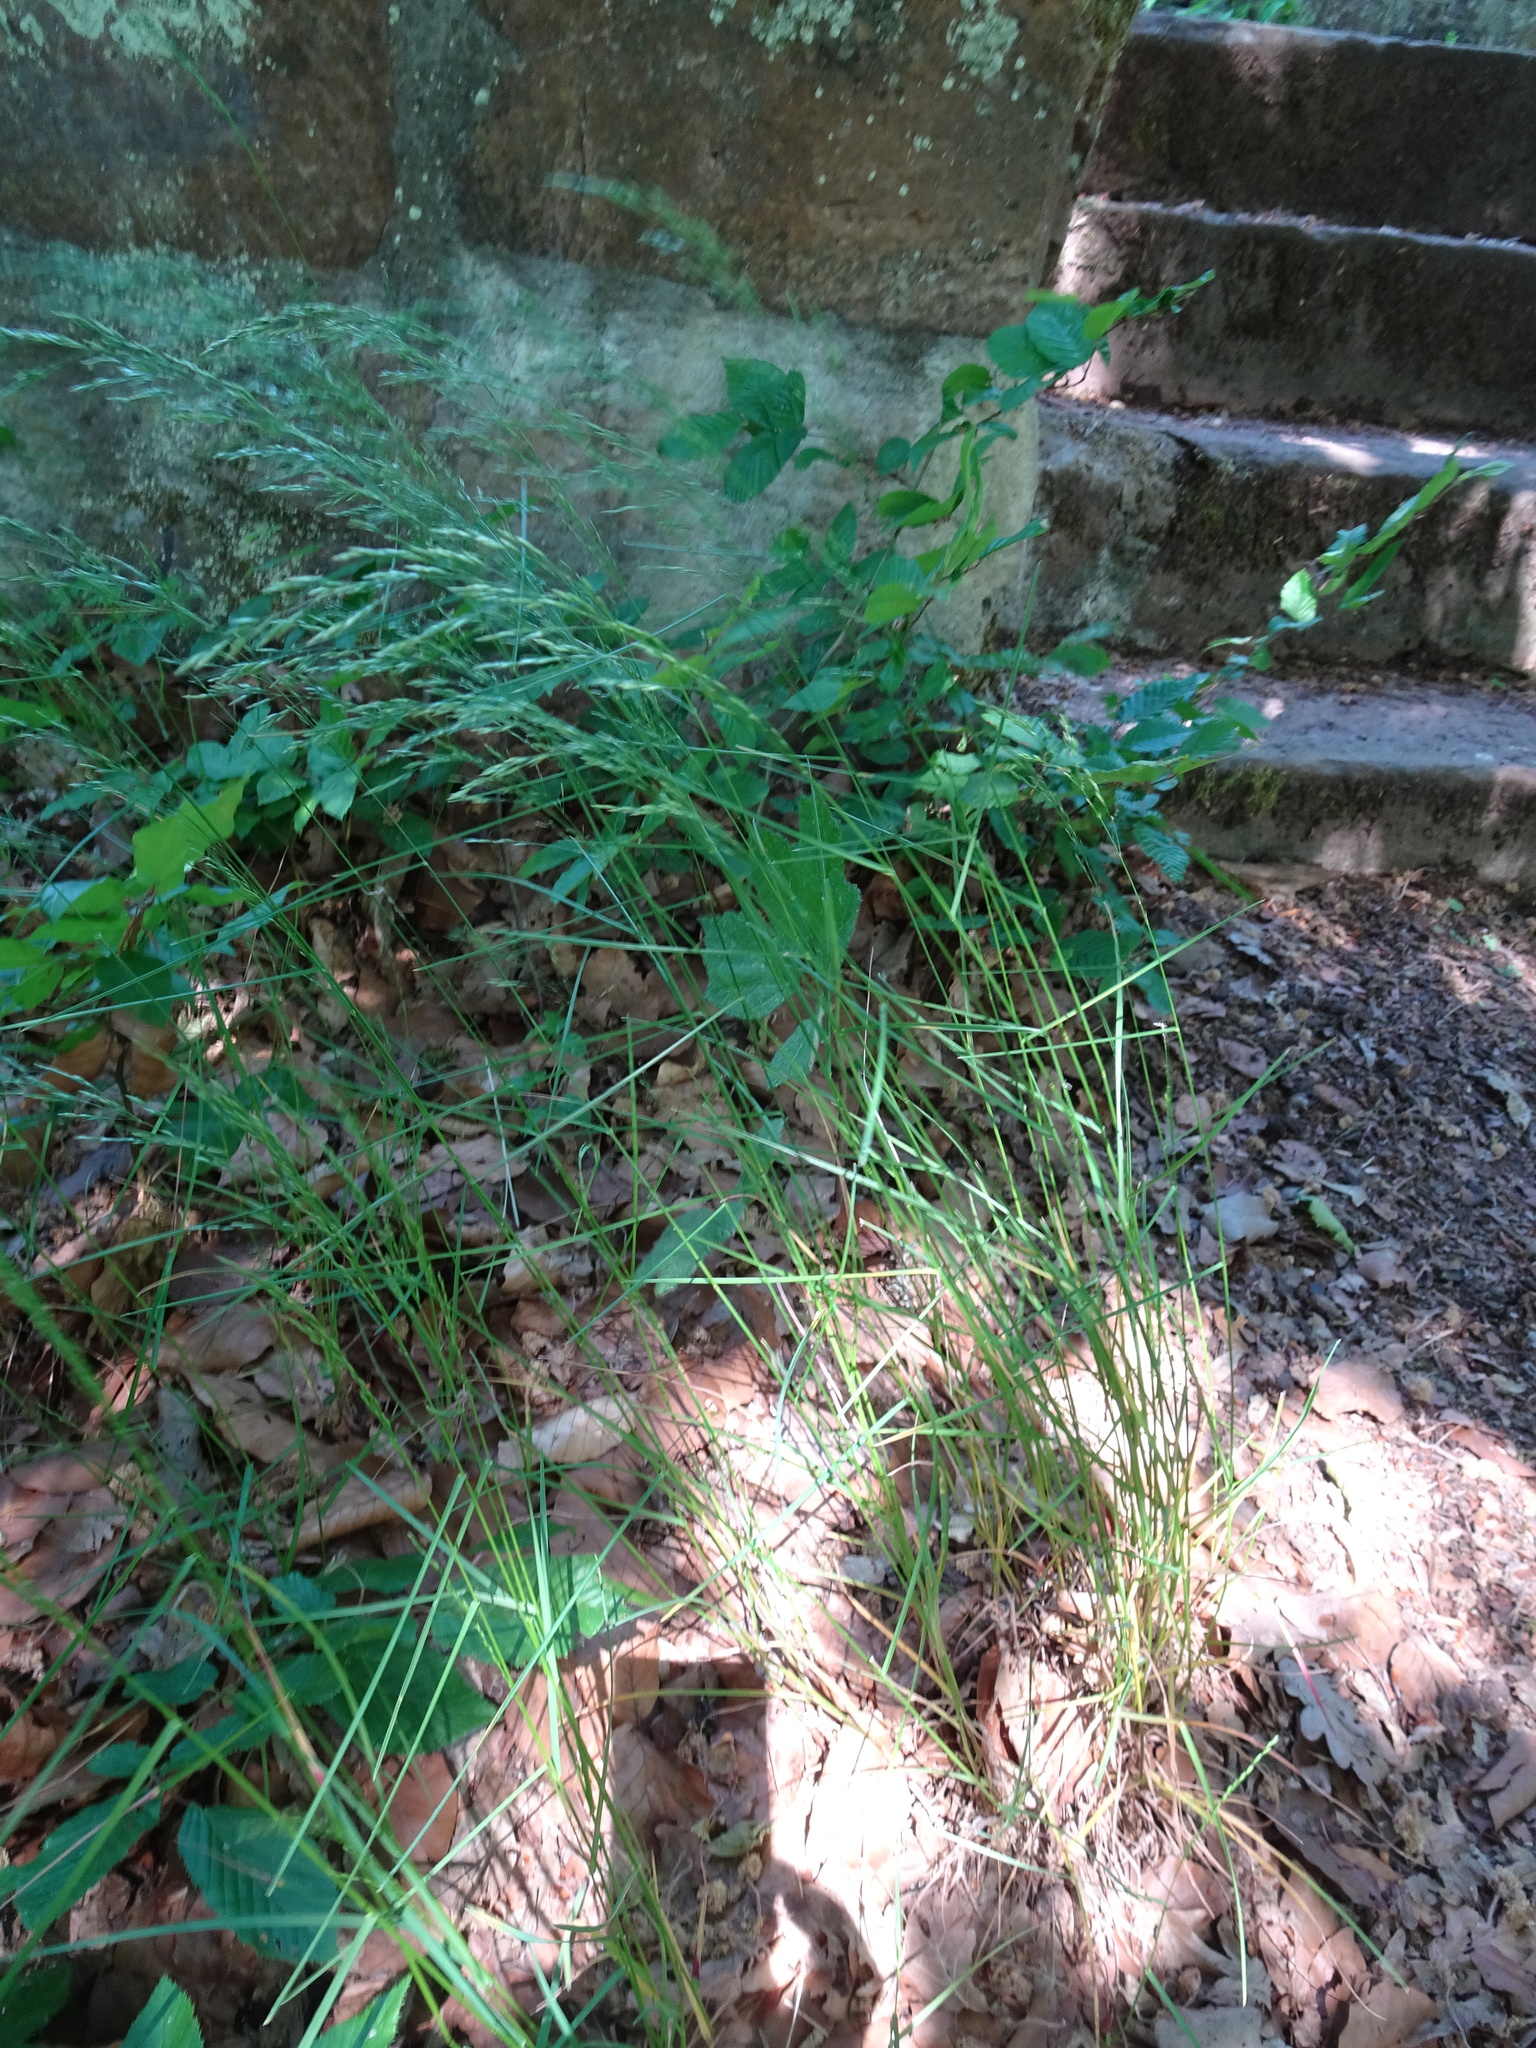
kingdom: Plantae
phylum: Tracheophyta
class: Liliopsida
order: Poales
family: Poaceae
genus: Poa
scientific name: Poa nemoralis
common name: Wood bluegrass
